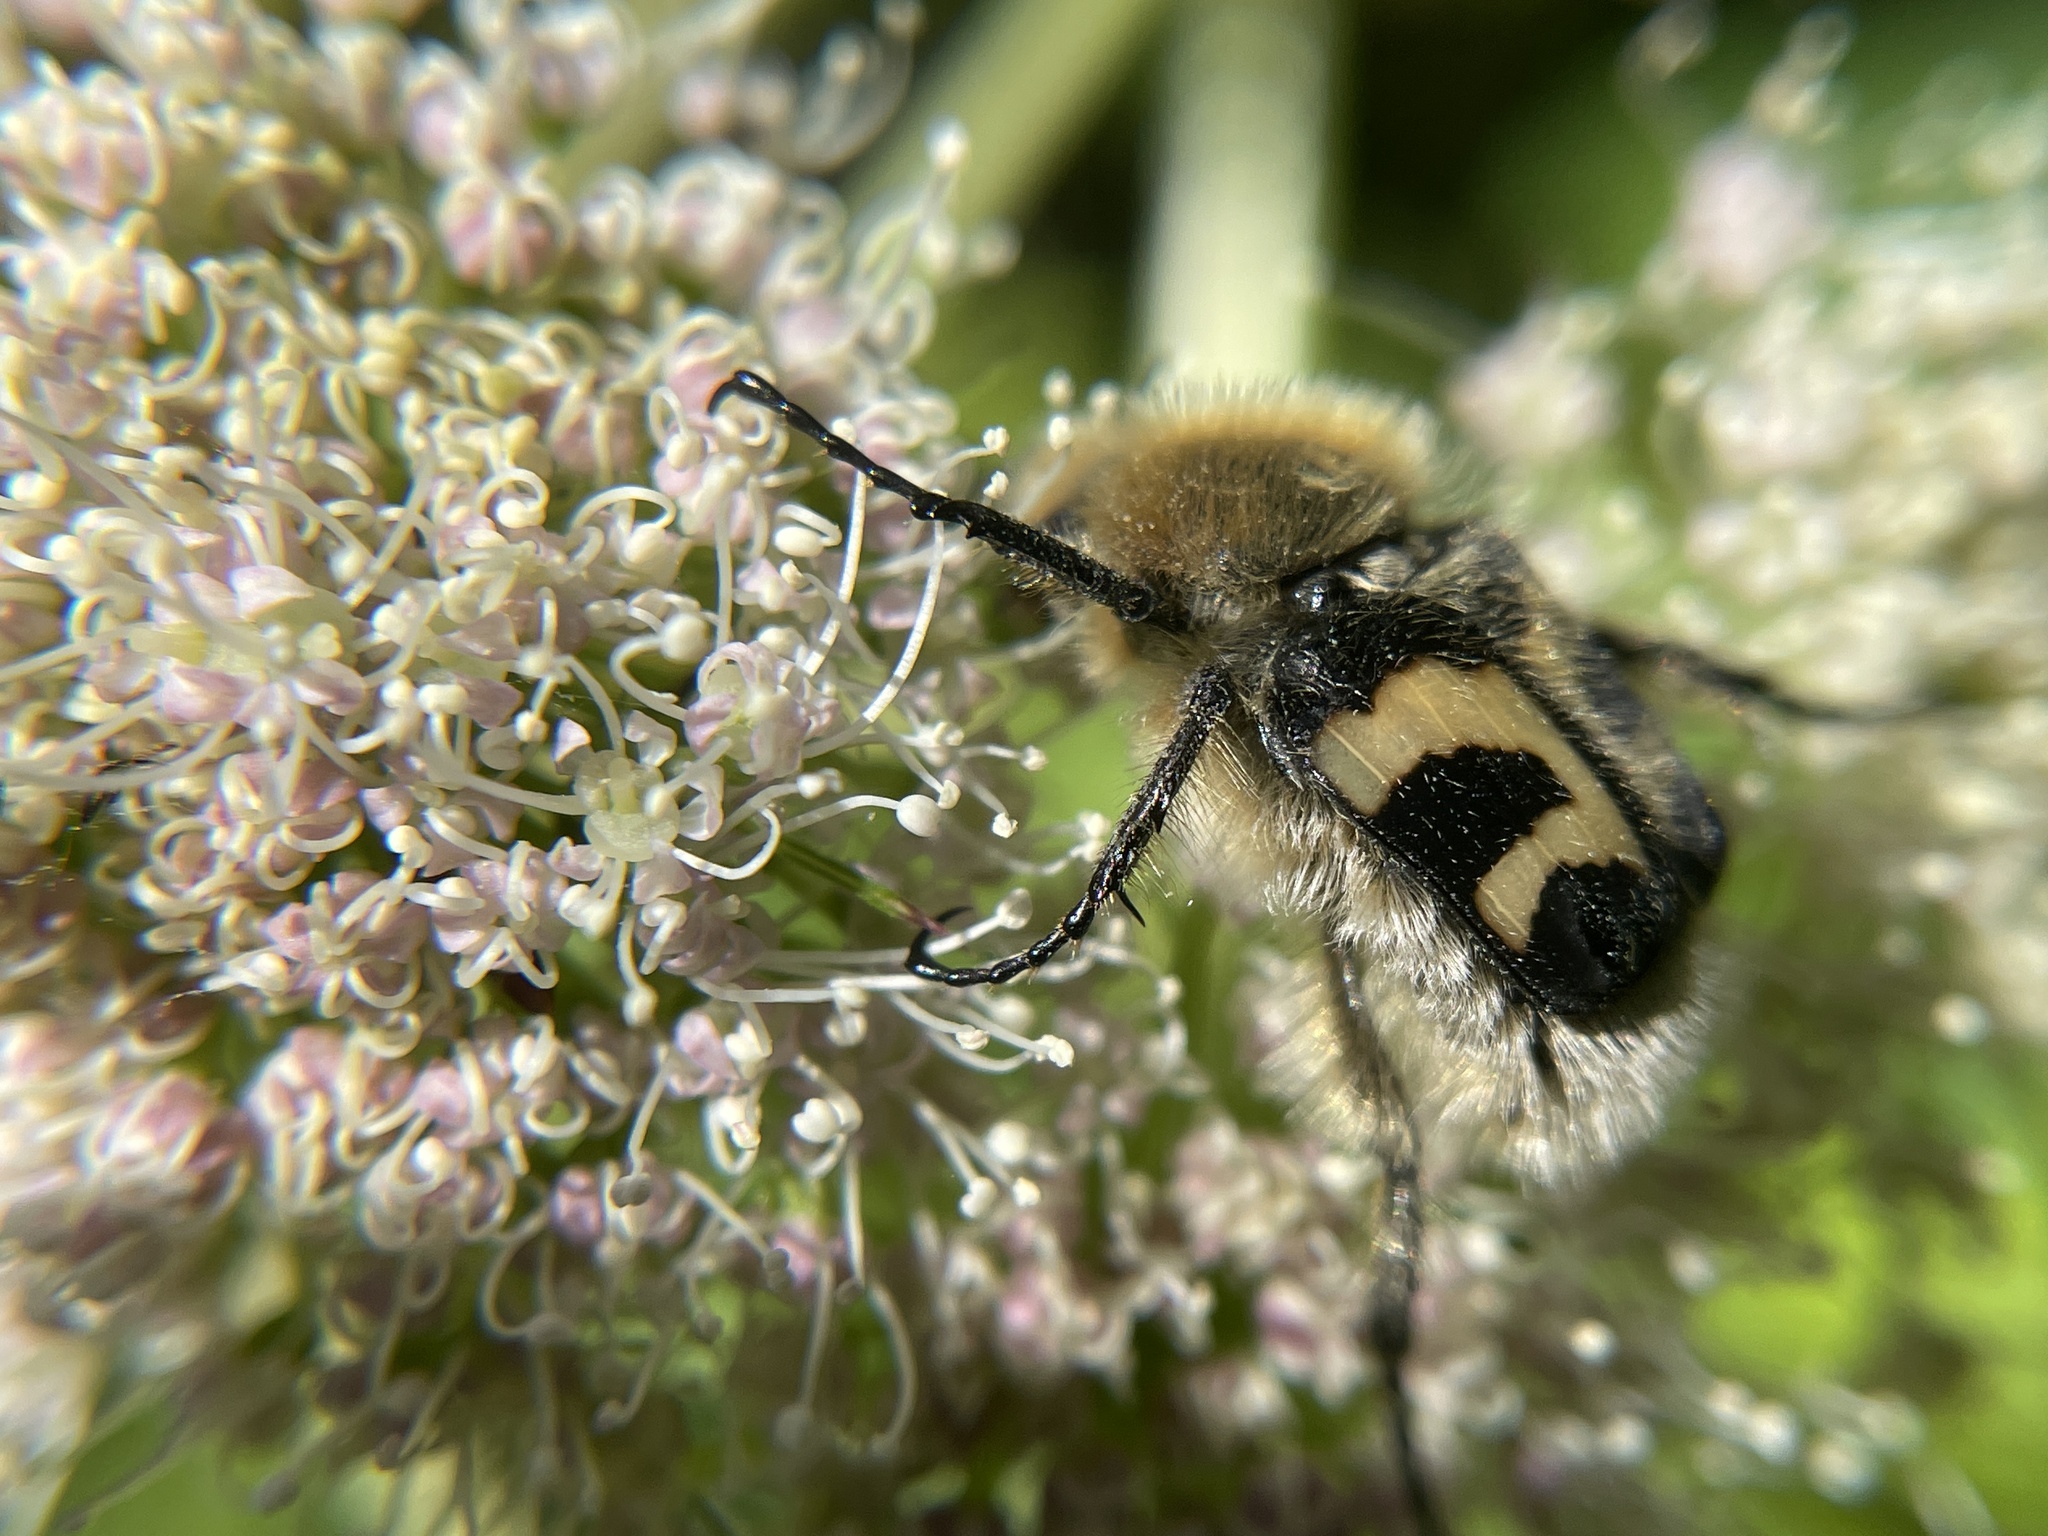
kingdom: Animalia
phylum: Arthropoda
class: Insecta
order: Coleoptera
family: Scarabaeidae
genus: Trichius
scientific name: Trichius fasciatus
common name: Bee beetle
